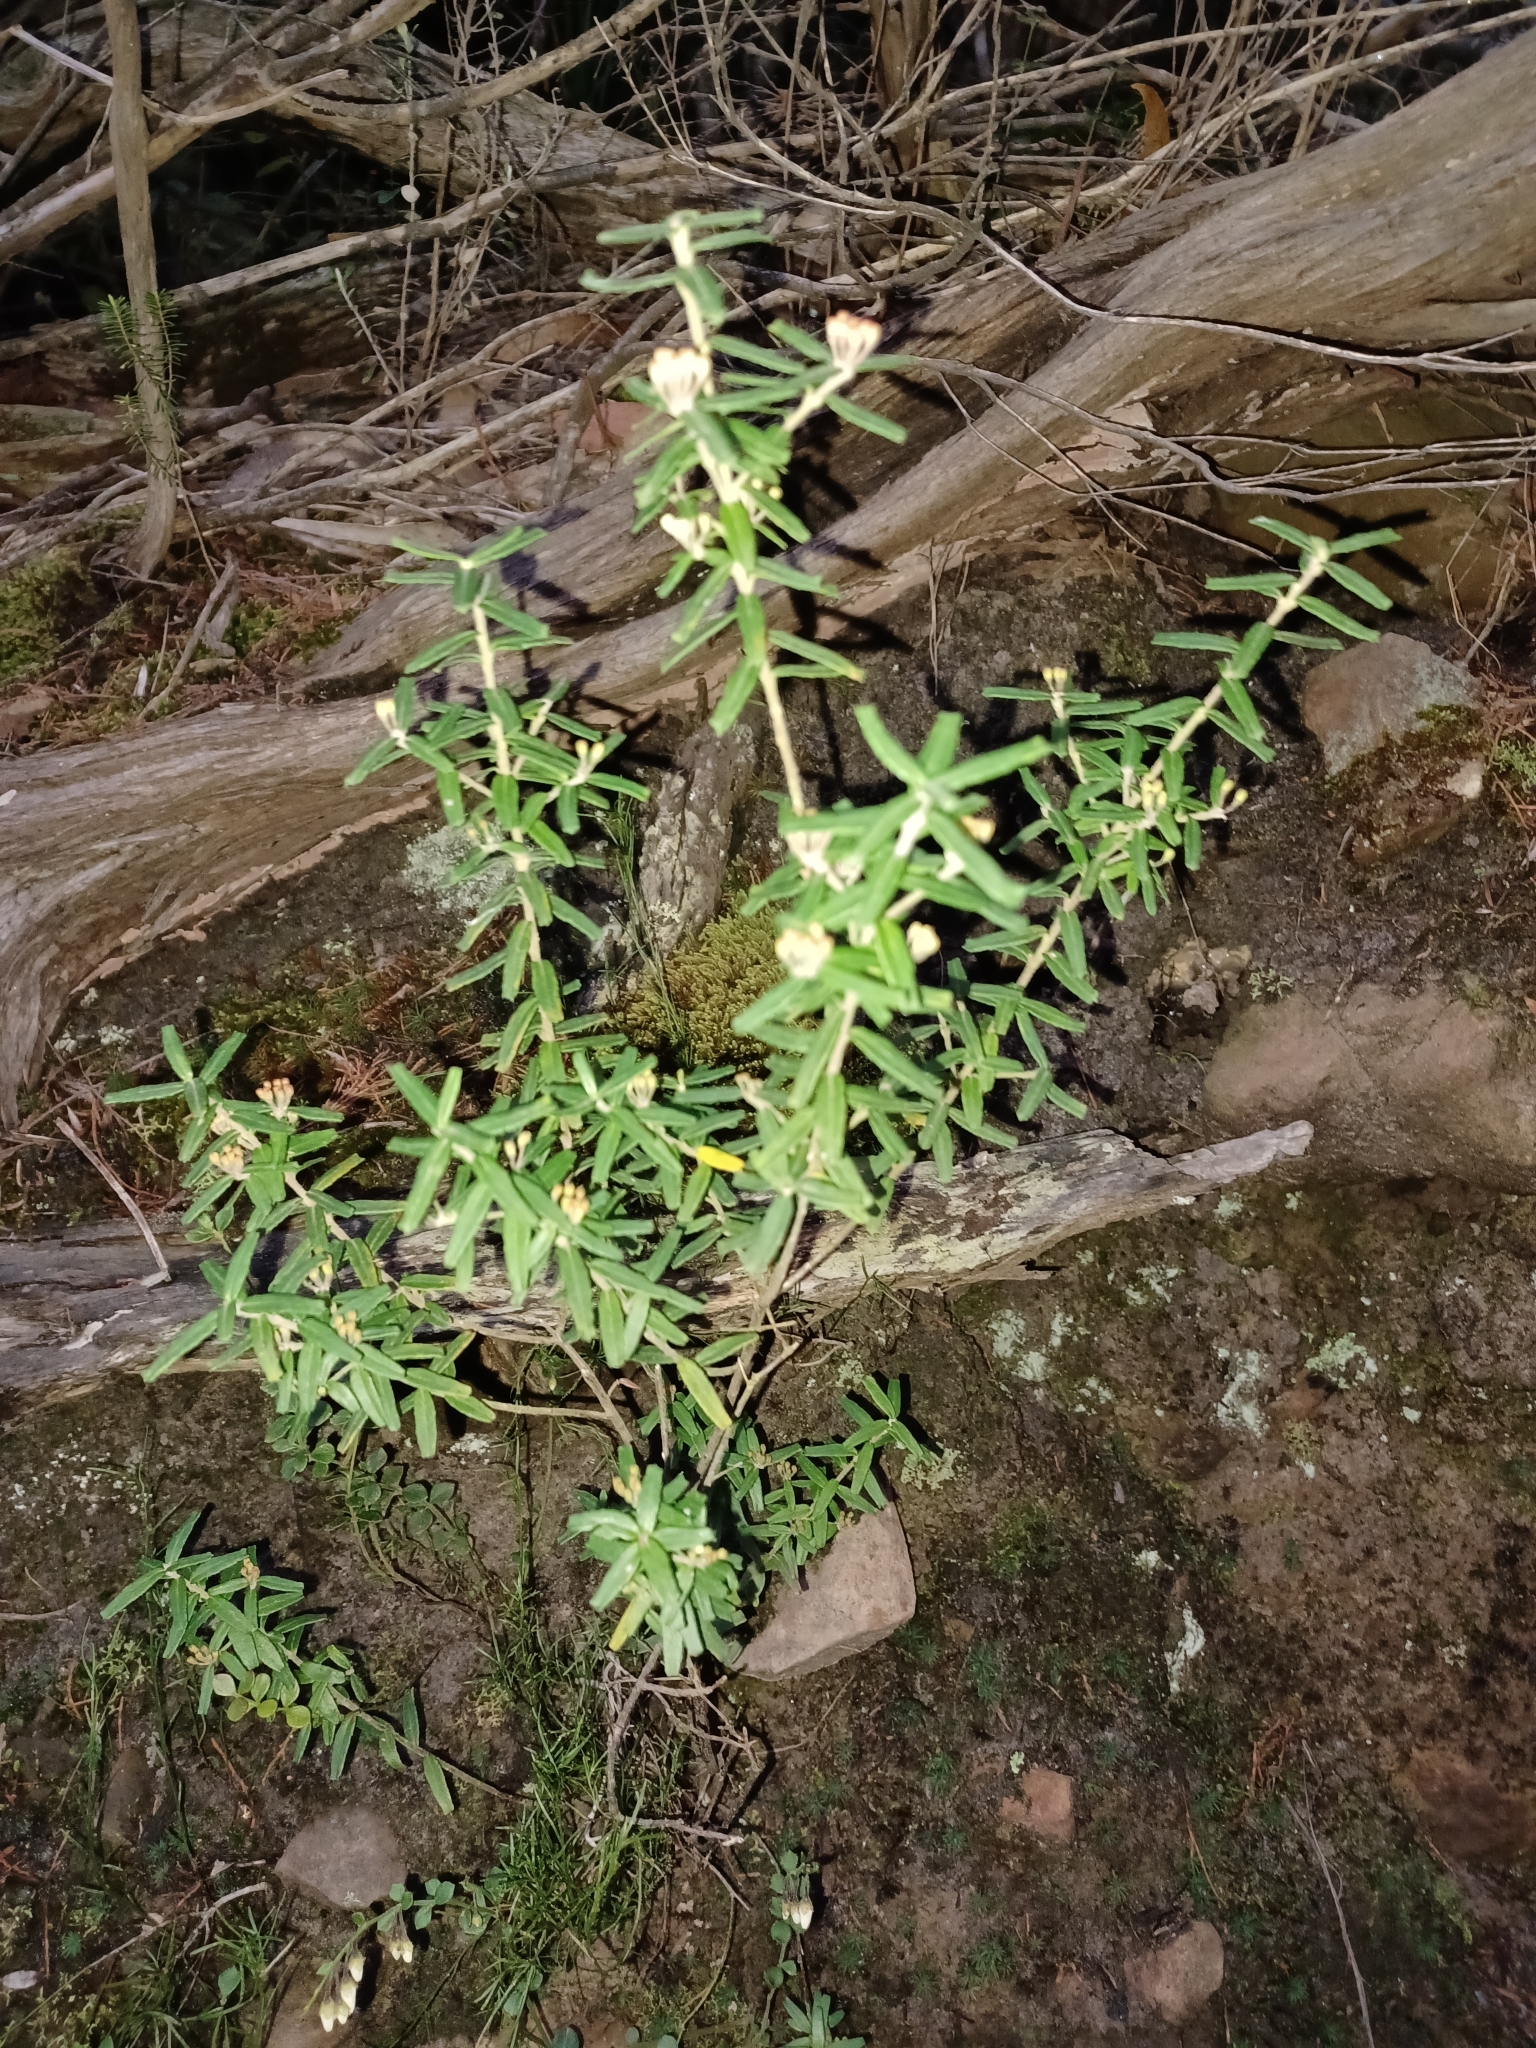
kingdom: Plantae
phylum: Tracheophyta
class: Magnoliopsida
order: Sapindales
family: Rutaceae
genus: Leionema
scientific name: Leionema bilobum
